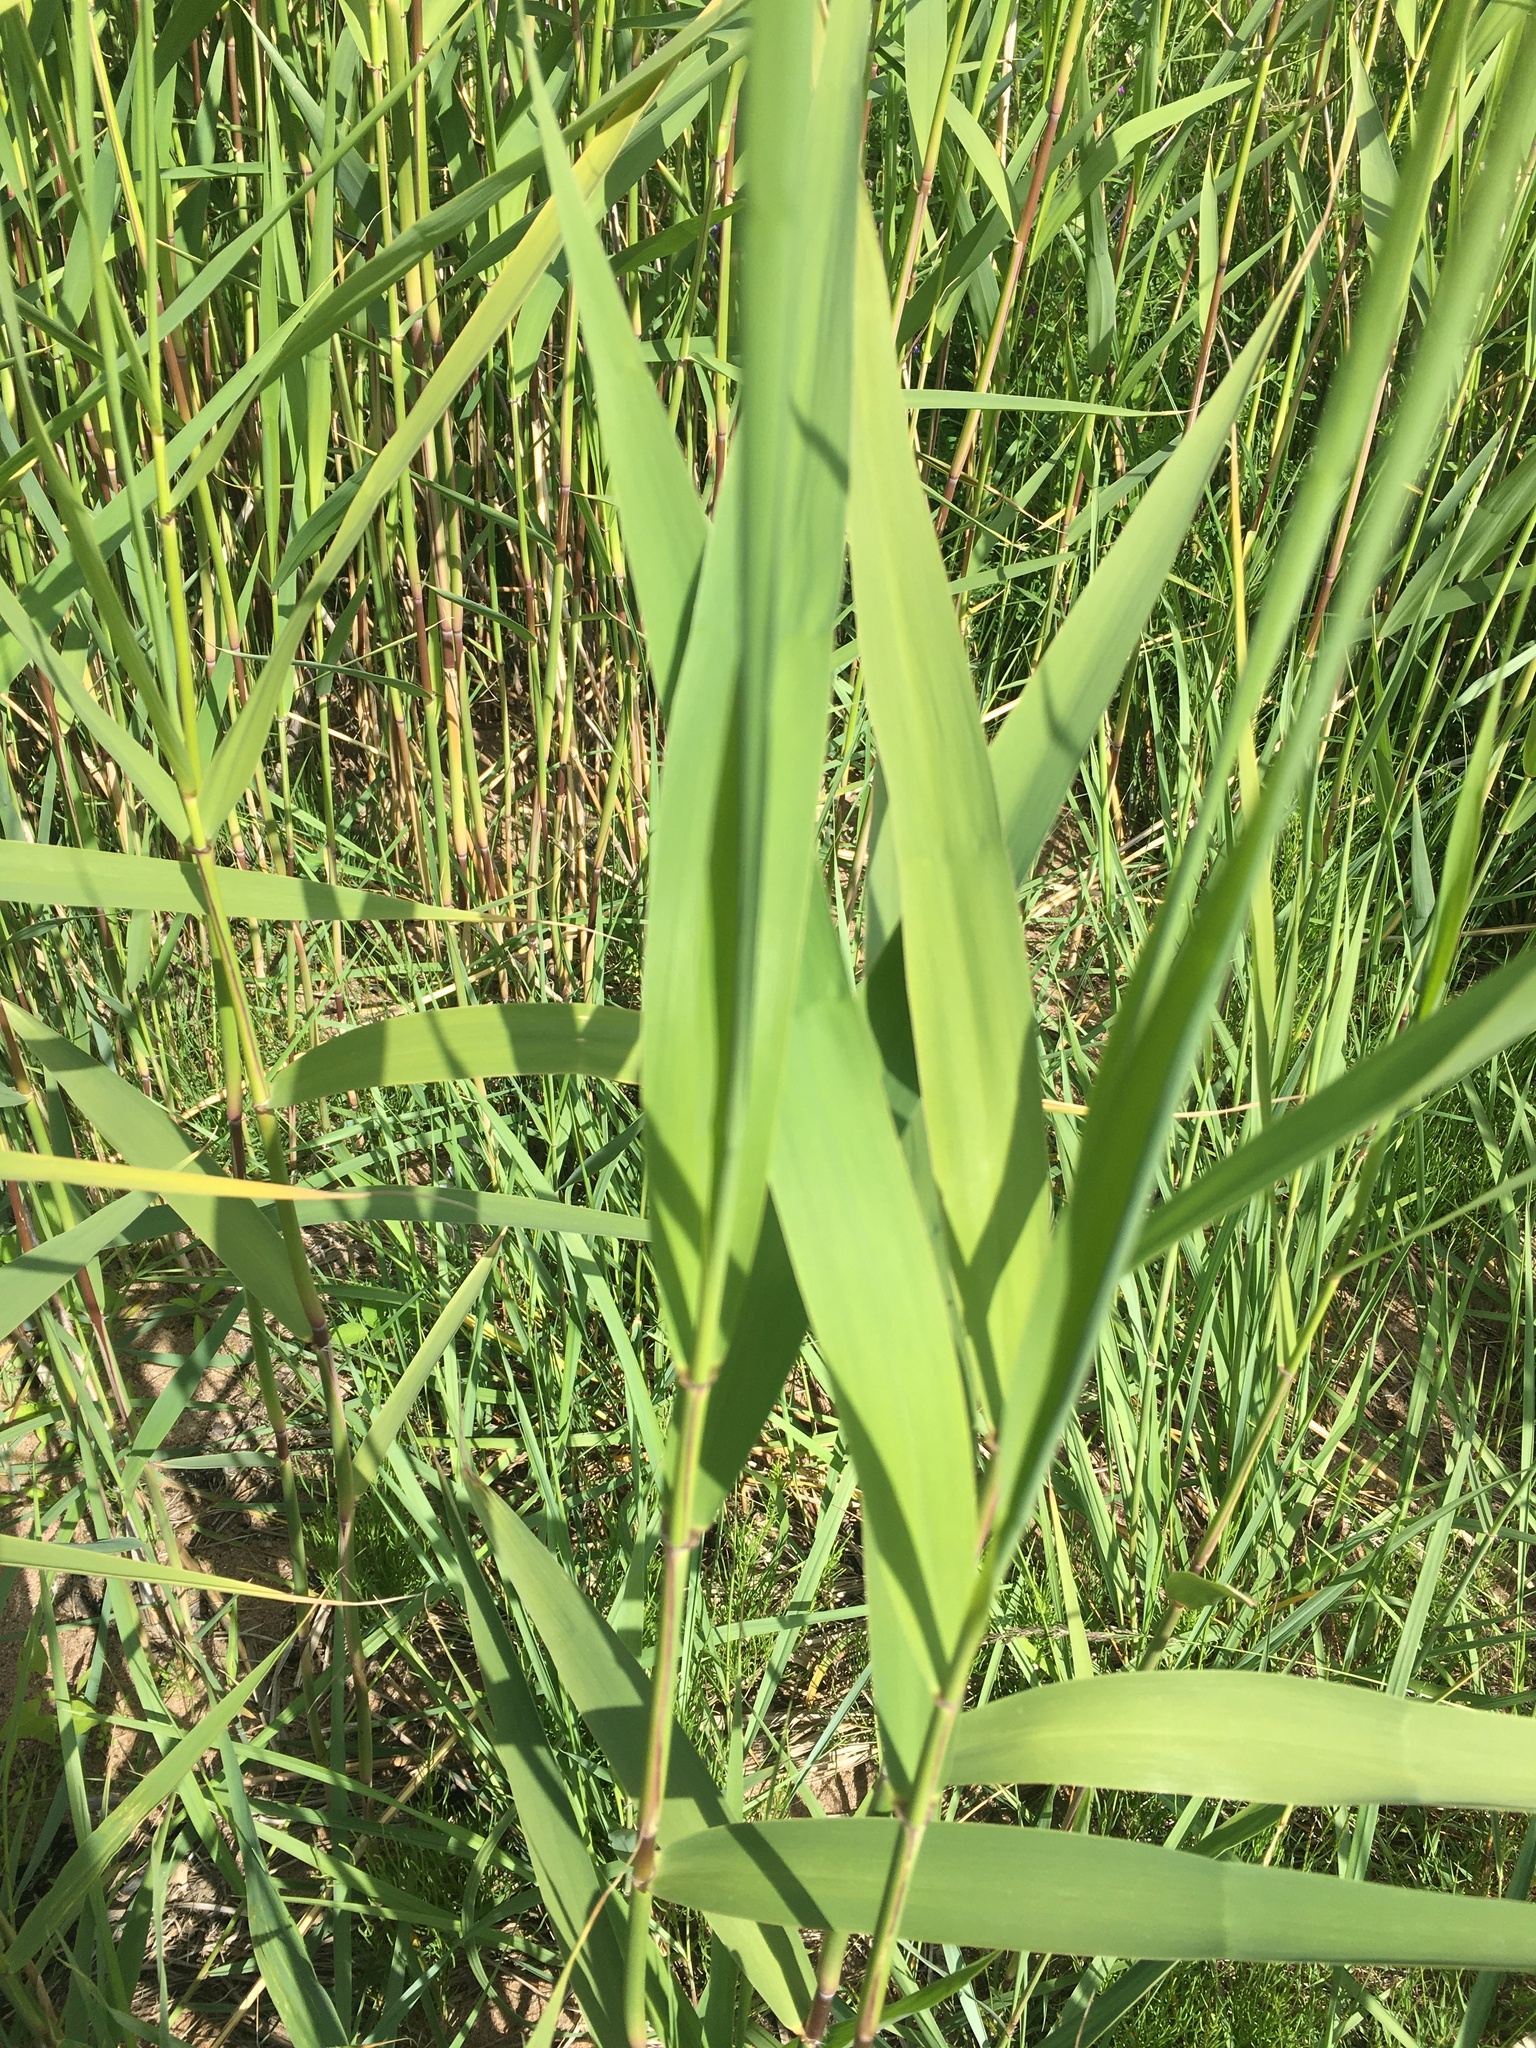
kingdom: Plantae
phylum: Tracheophyta
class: Liliopsida
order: Poales
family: Poaceae
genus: Phragmites
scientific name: Phragmites australis
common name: Common reed
